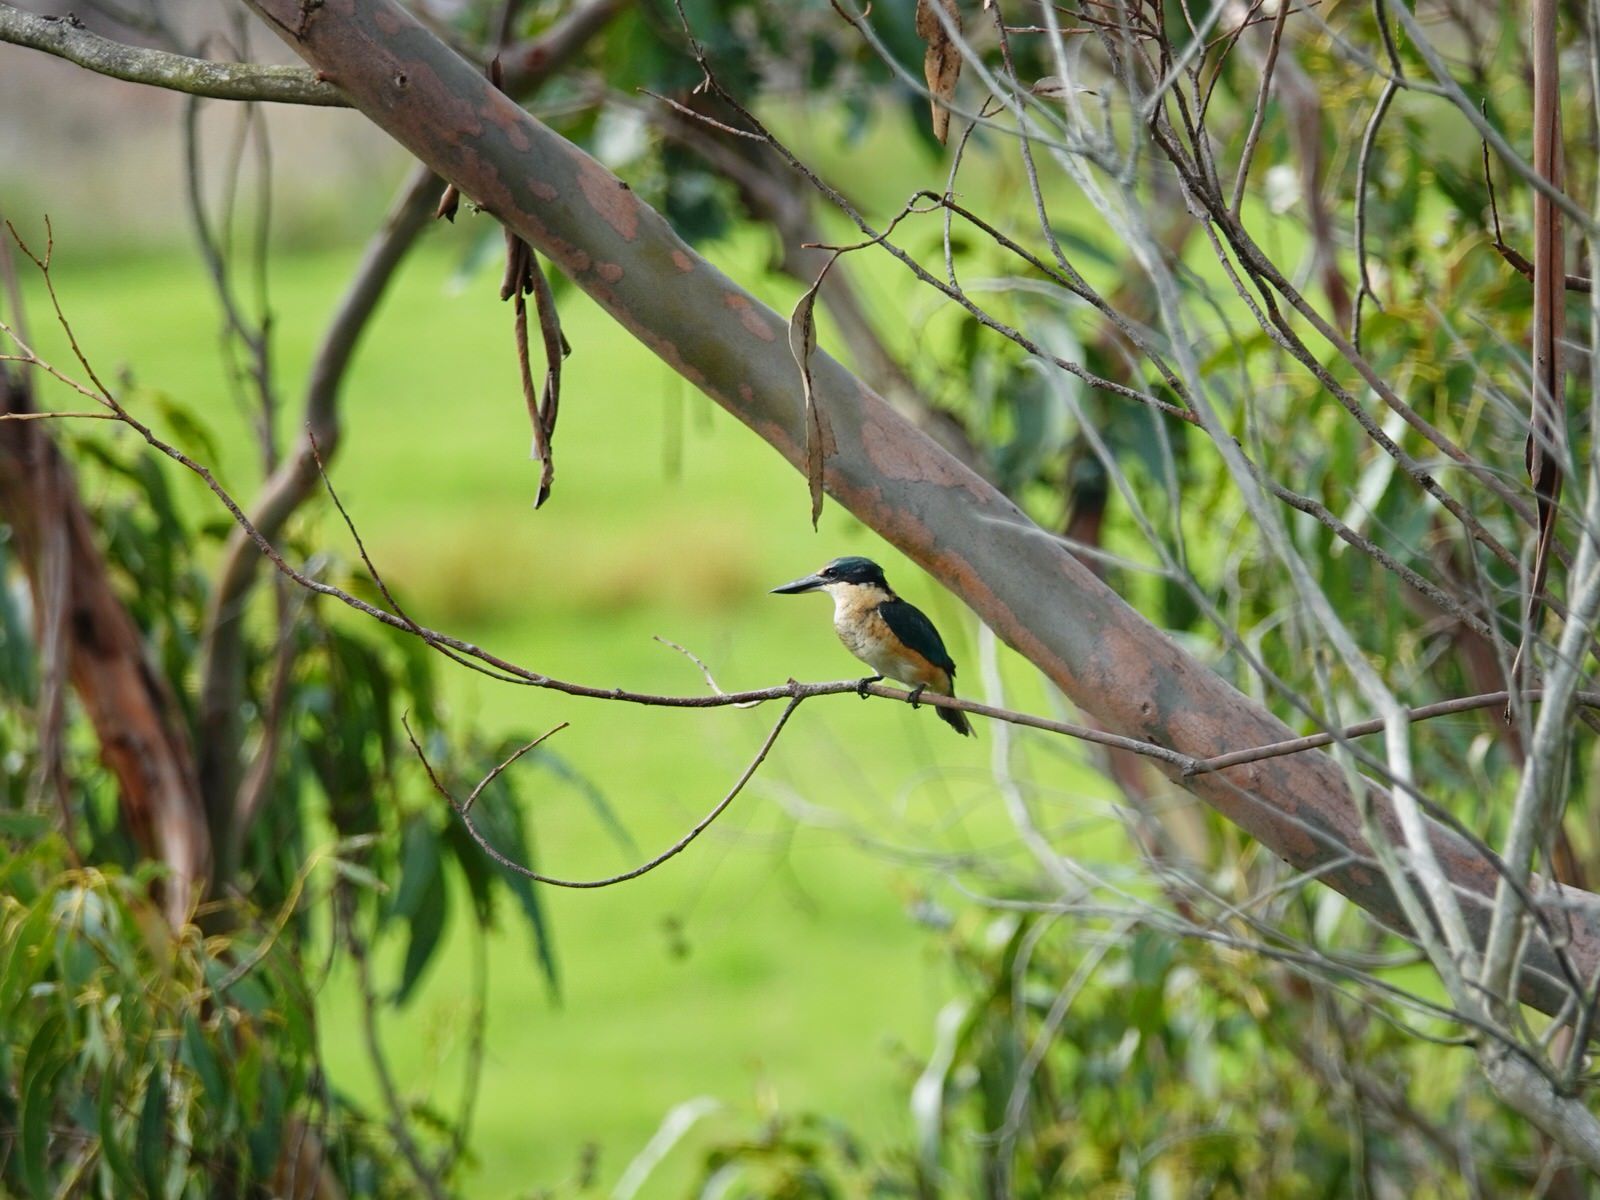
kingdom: Animalia
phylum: Chordata
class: Aves
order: Coraciiformes
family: Alcedinidae
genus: Todiramphus
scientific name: Todiramphus sanctus
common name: Sacred kingfisher
